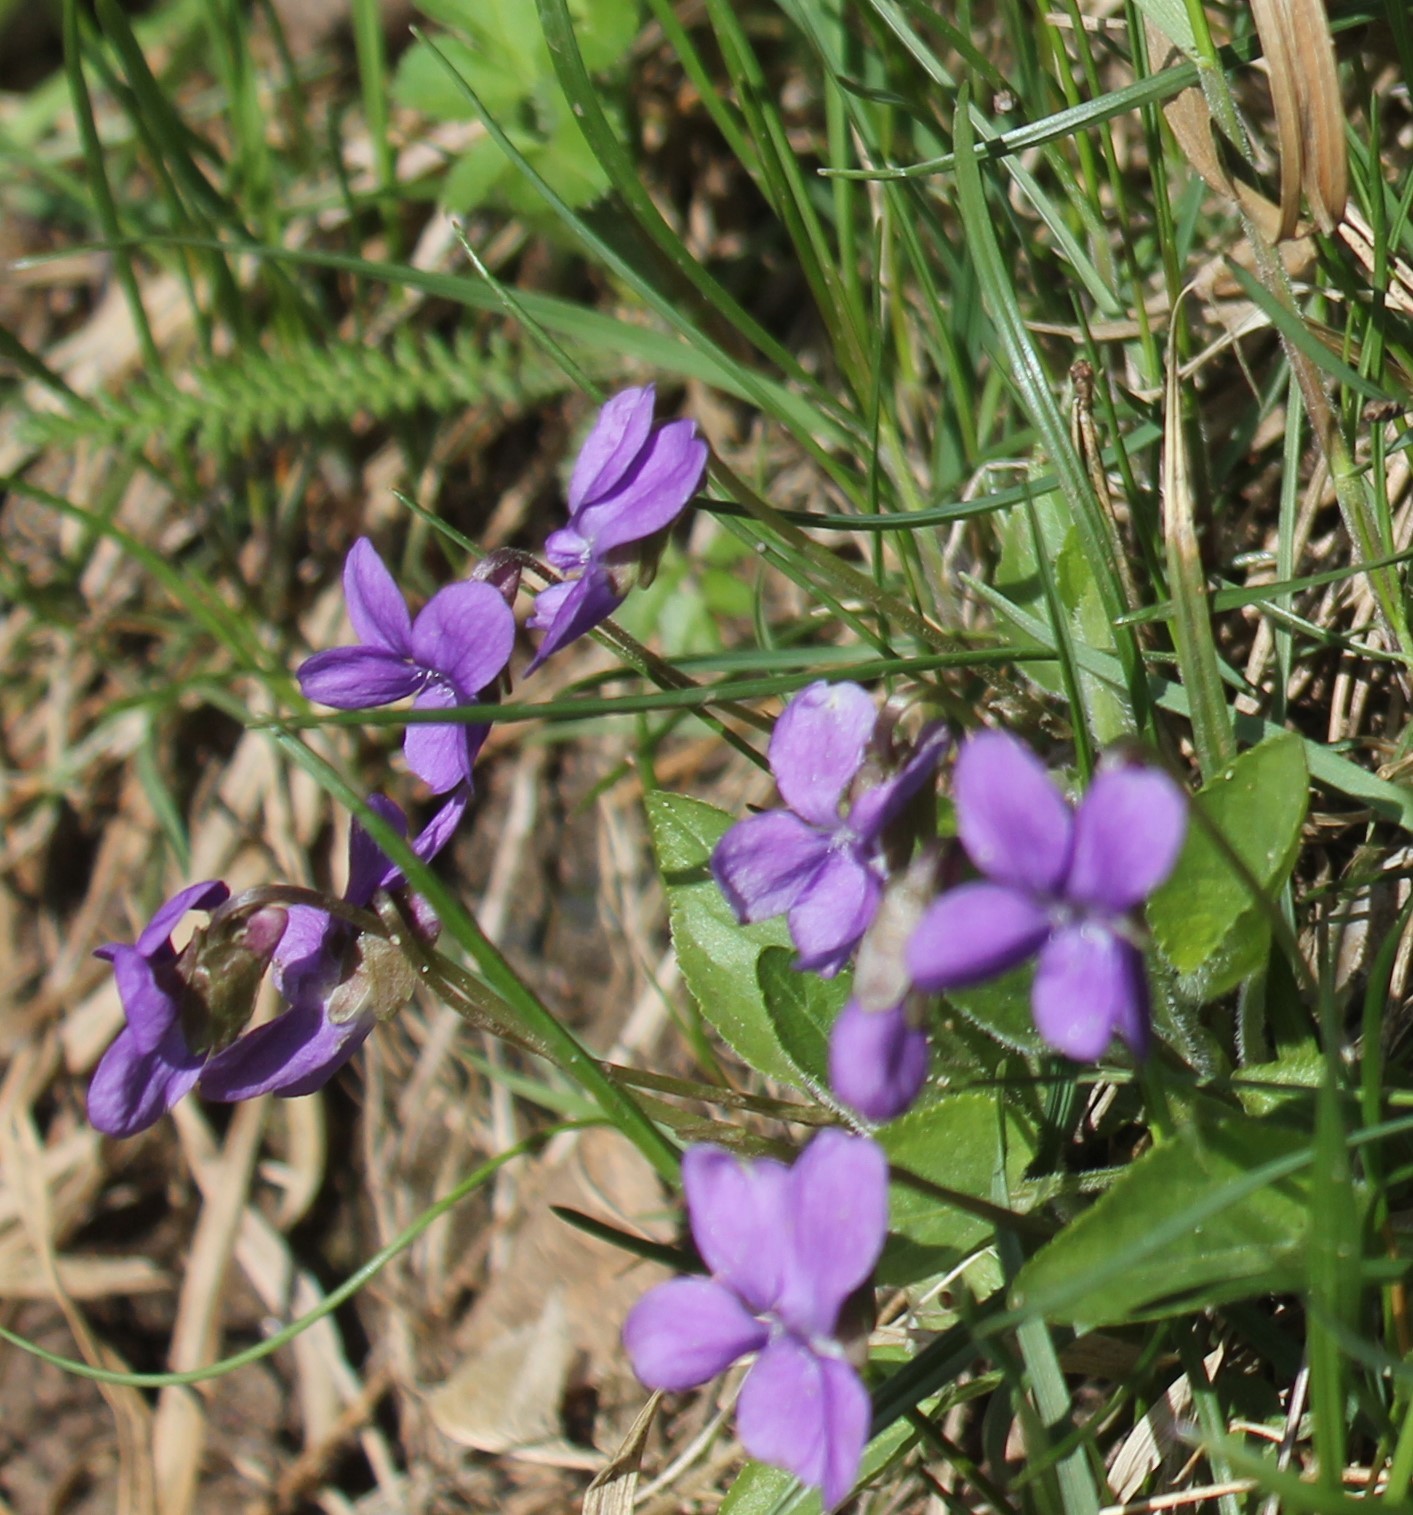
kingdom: Plantae
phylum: Tracheophyta
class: Magnoliopsida
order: Malpighiales
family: Violaceae
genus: Viola
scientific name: Viola hirta
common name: Hairy violet
